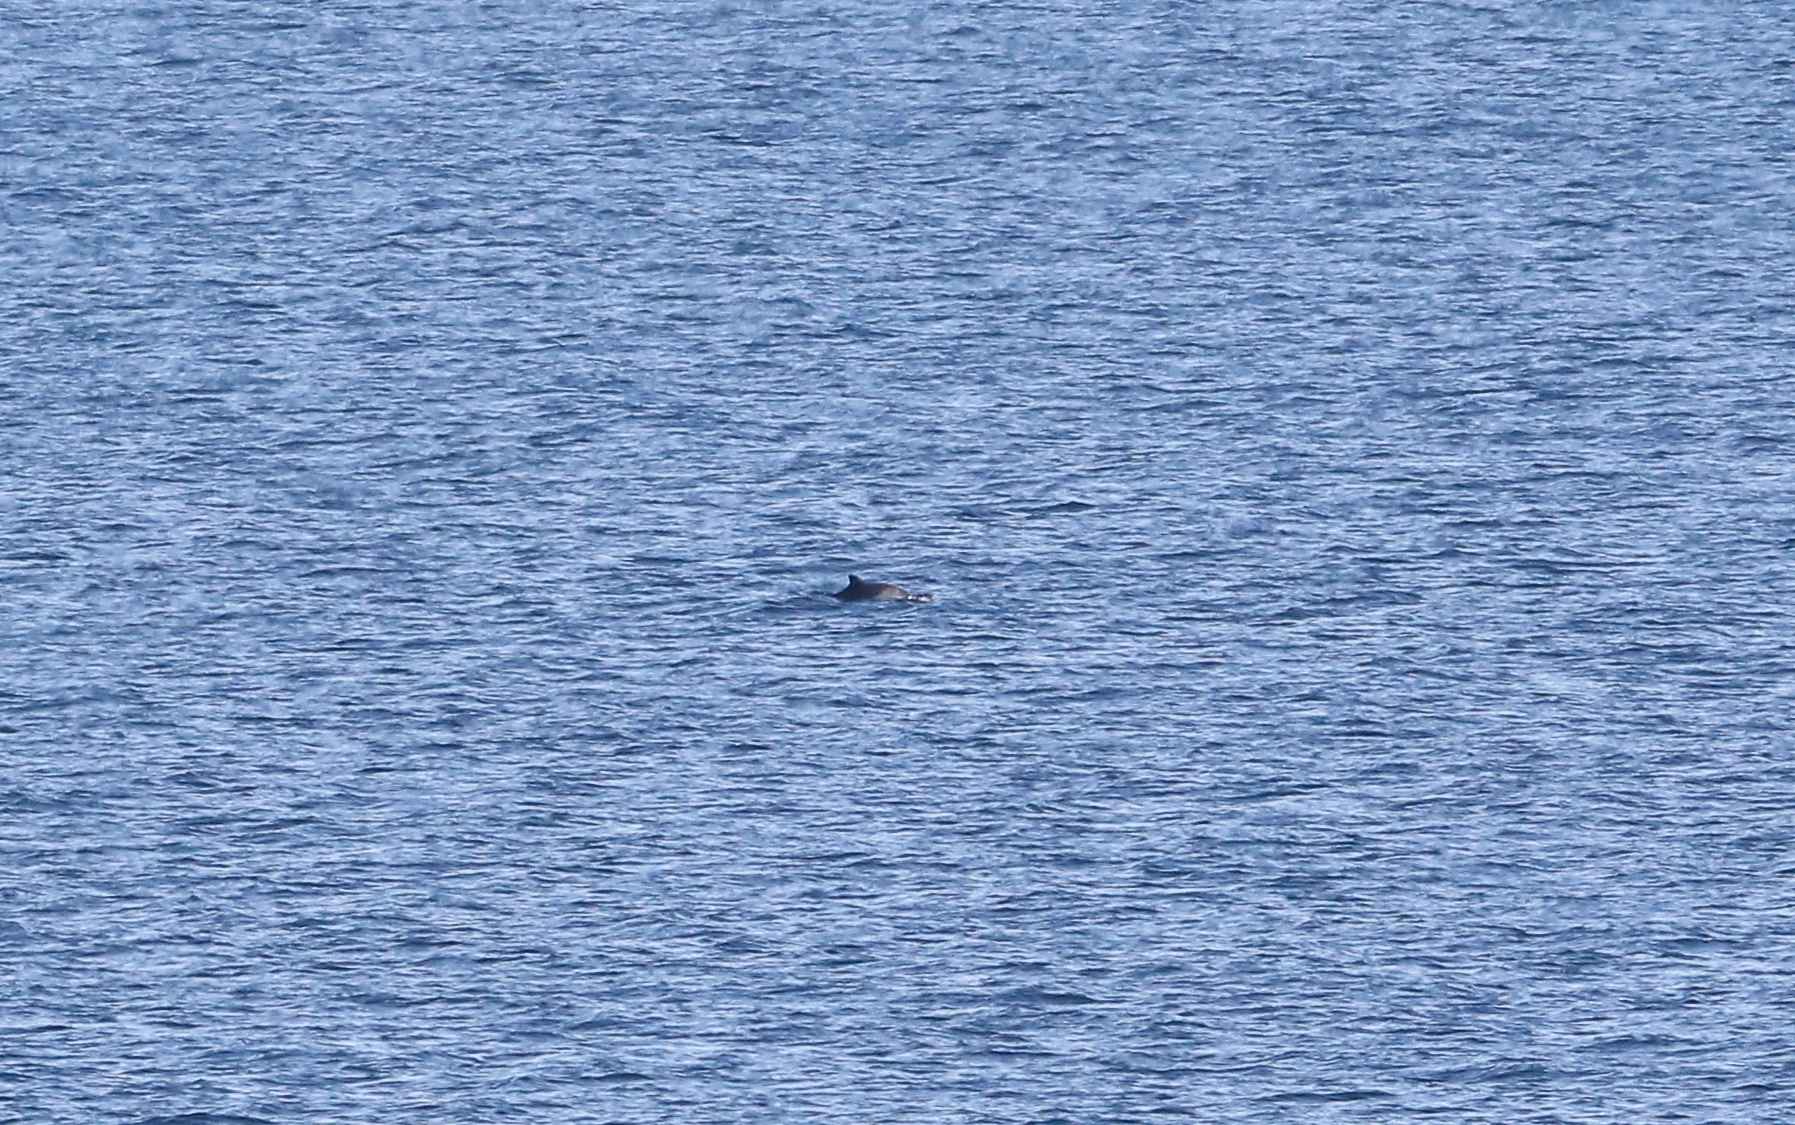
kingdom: Animalia
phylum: Chordata
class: Mammalia
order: Cetacea
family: Phocoenidae
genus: Phocoena
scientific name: Phocoena phocoena
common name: Harbor porpoise
